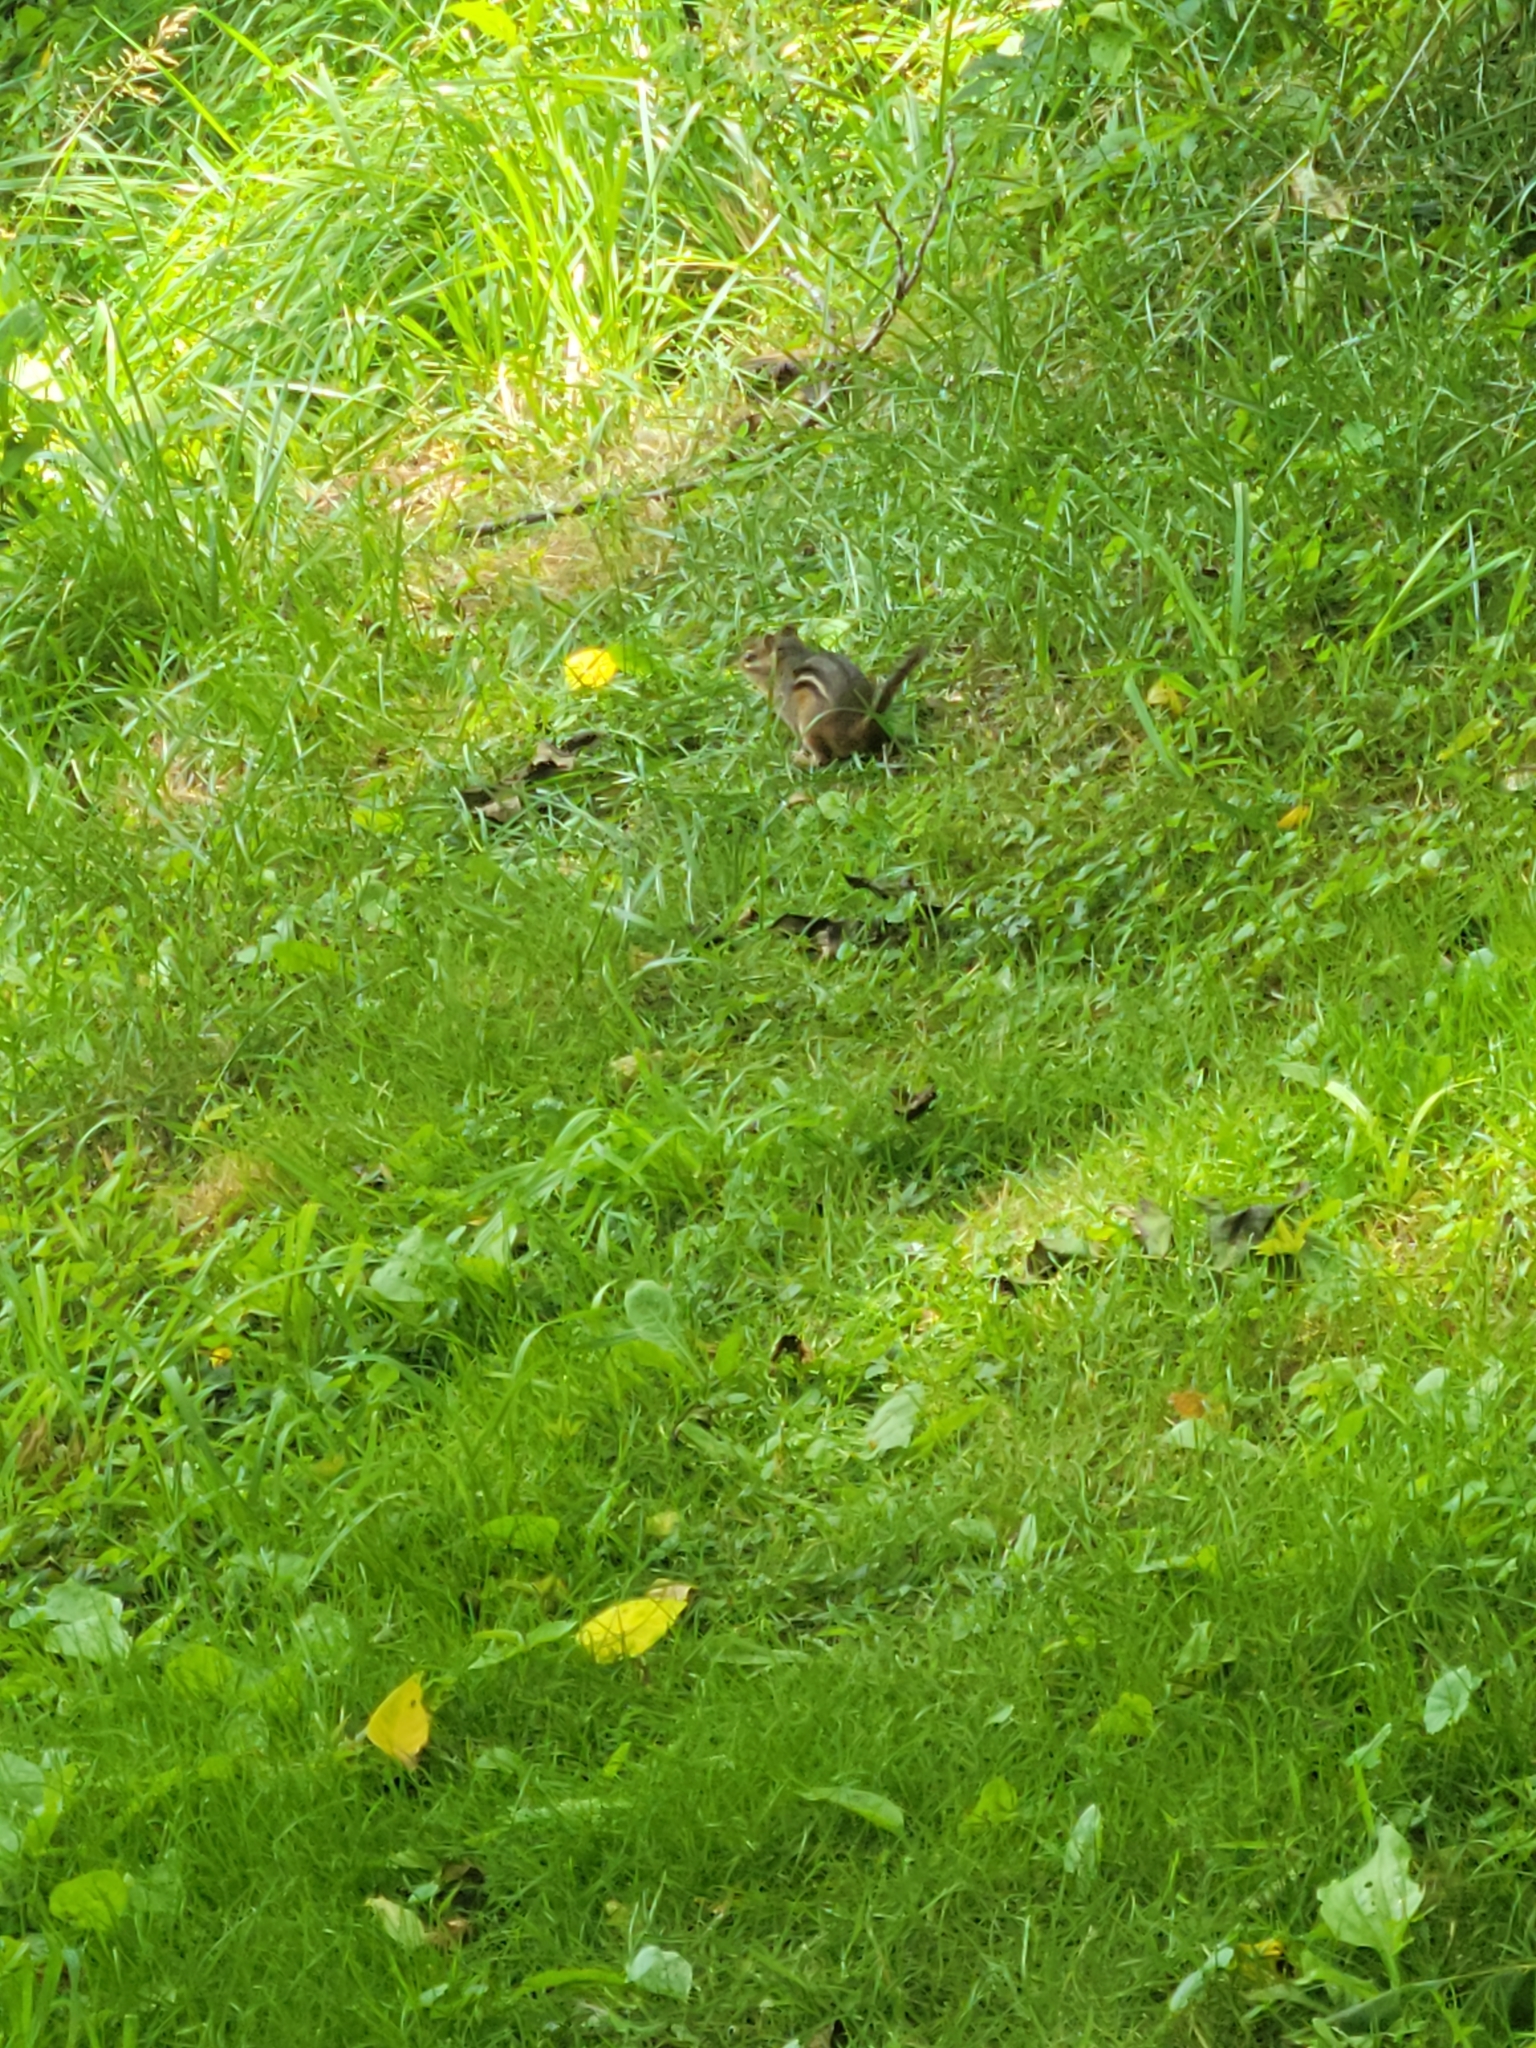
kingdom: Animalia
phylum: Chordata
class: Mammalia
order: Rodentia
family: Sciuridae
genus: Tamias
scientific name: Tamias striatus
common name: Eastern chipmunk
